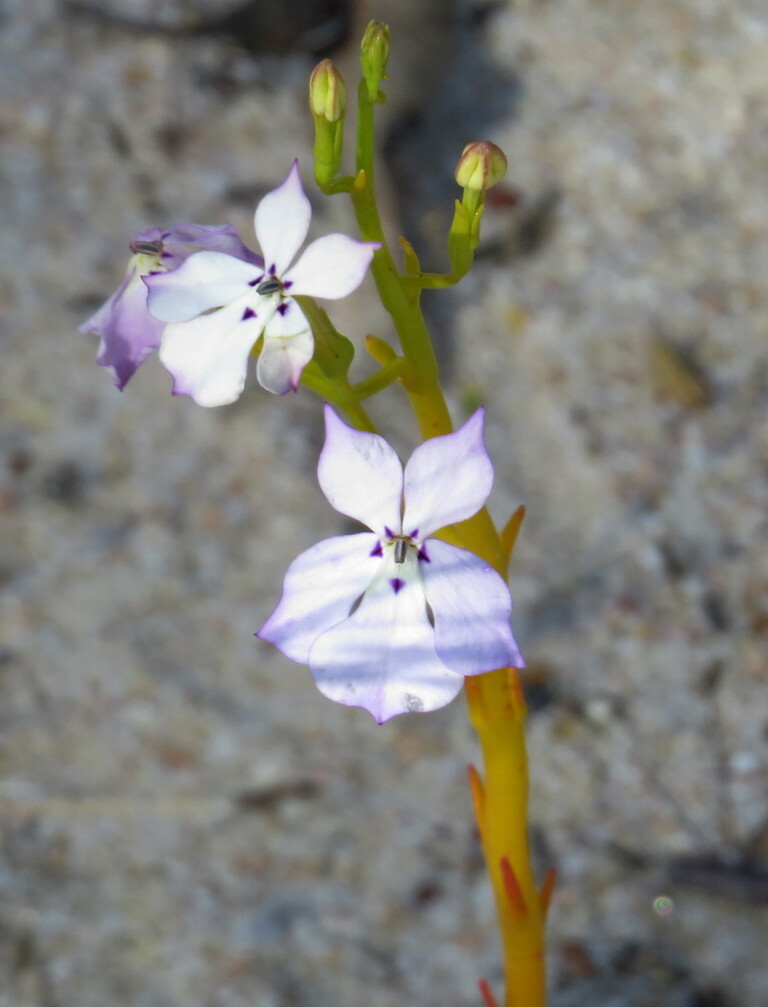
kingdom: Plantae
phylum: Tracheophyta
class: Magnoliopsida
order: Asterales
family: Campanulaceae
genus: Isotoma
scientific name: Isotoma hypocrateriformis
